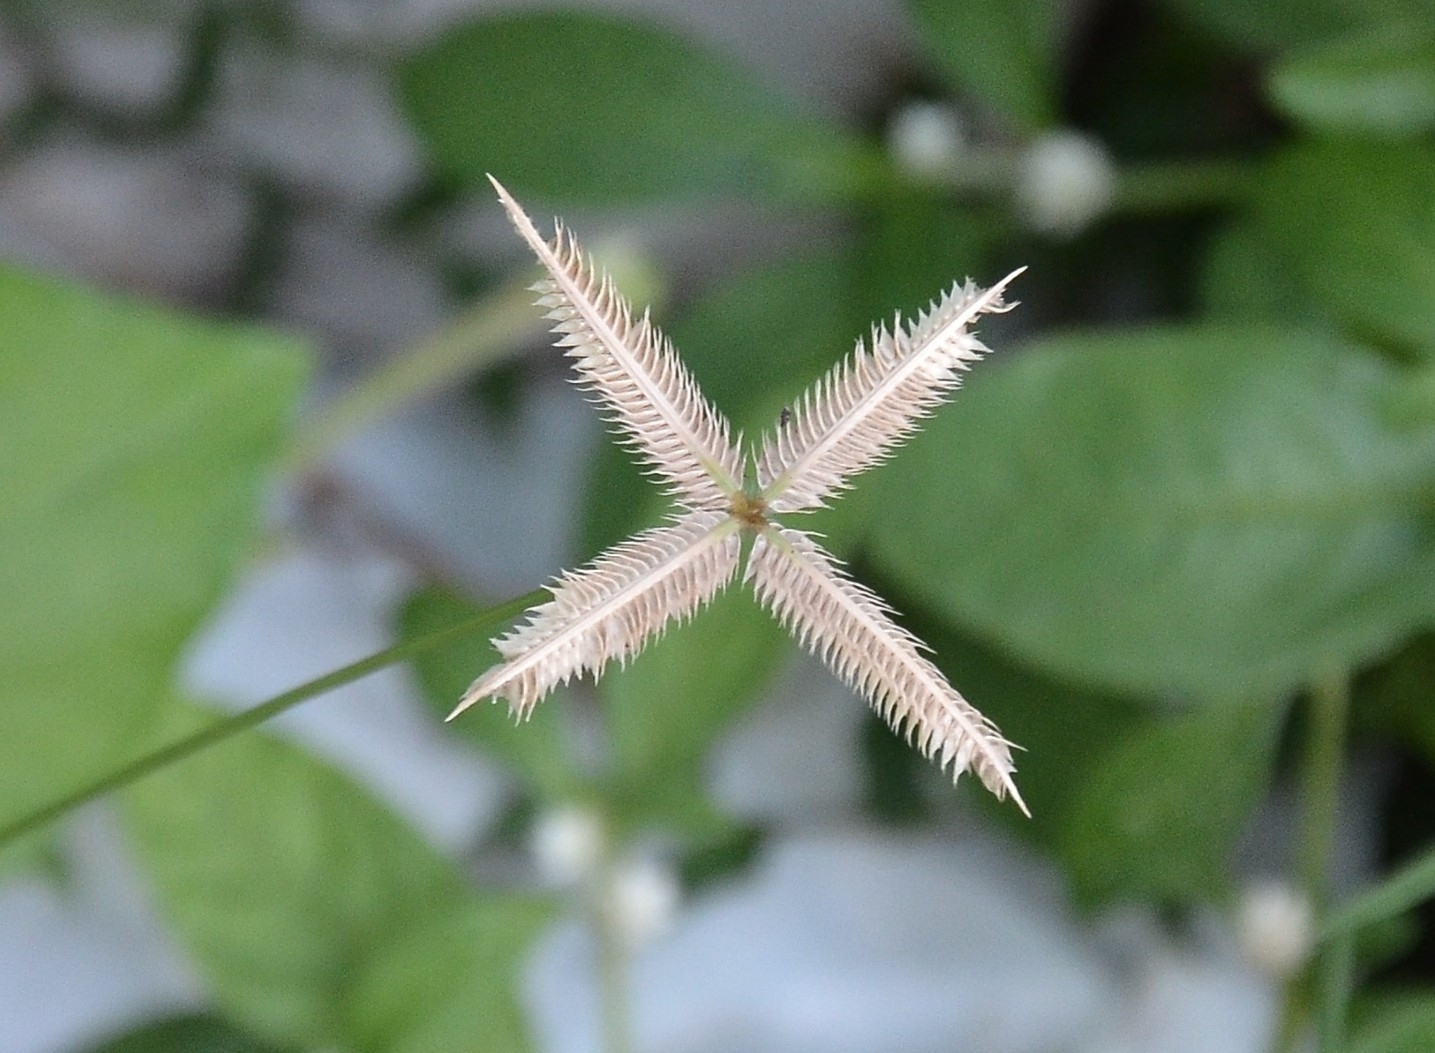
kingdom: Plantae
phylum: Tracheophyta
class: Liliopsida
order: Poales
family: Poaceae
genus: Dactyloctenium
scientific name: Dactyloctenium aegyptium
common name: Egyptian grass
